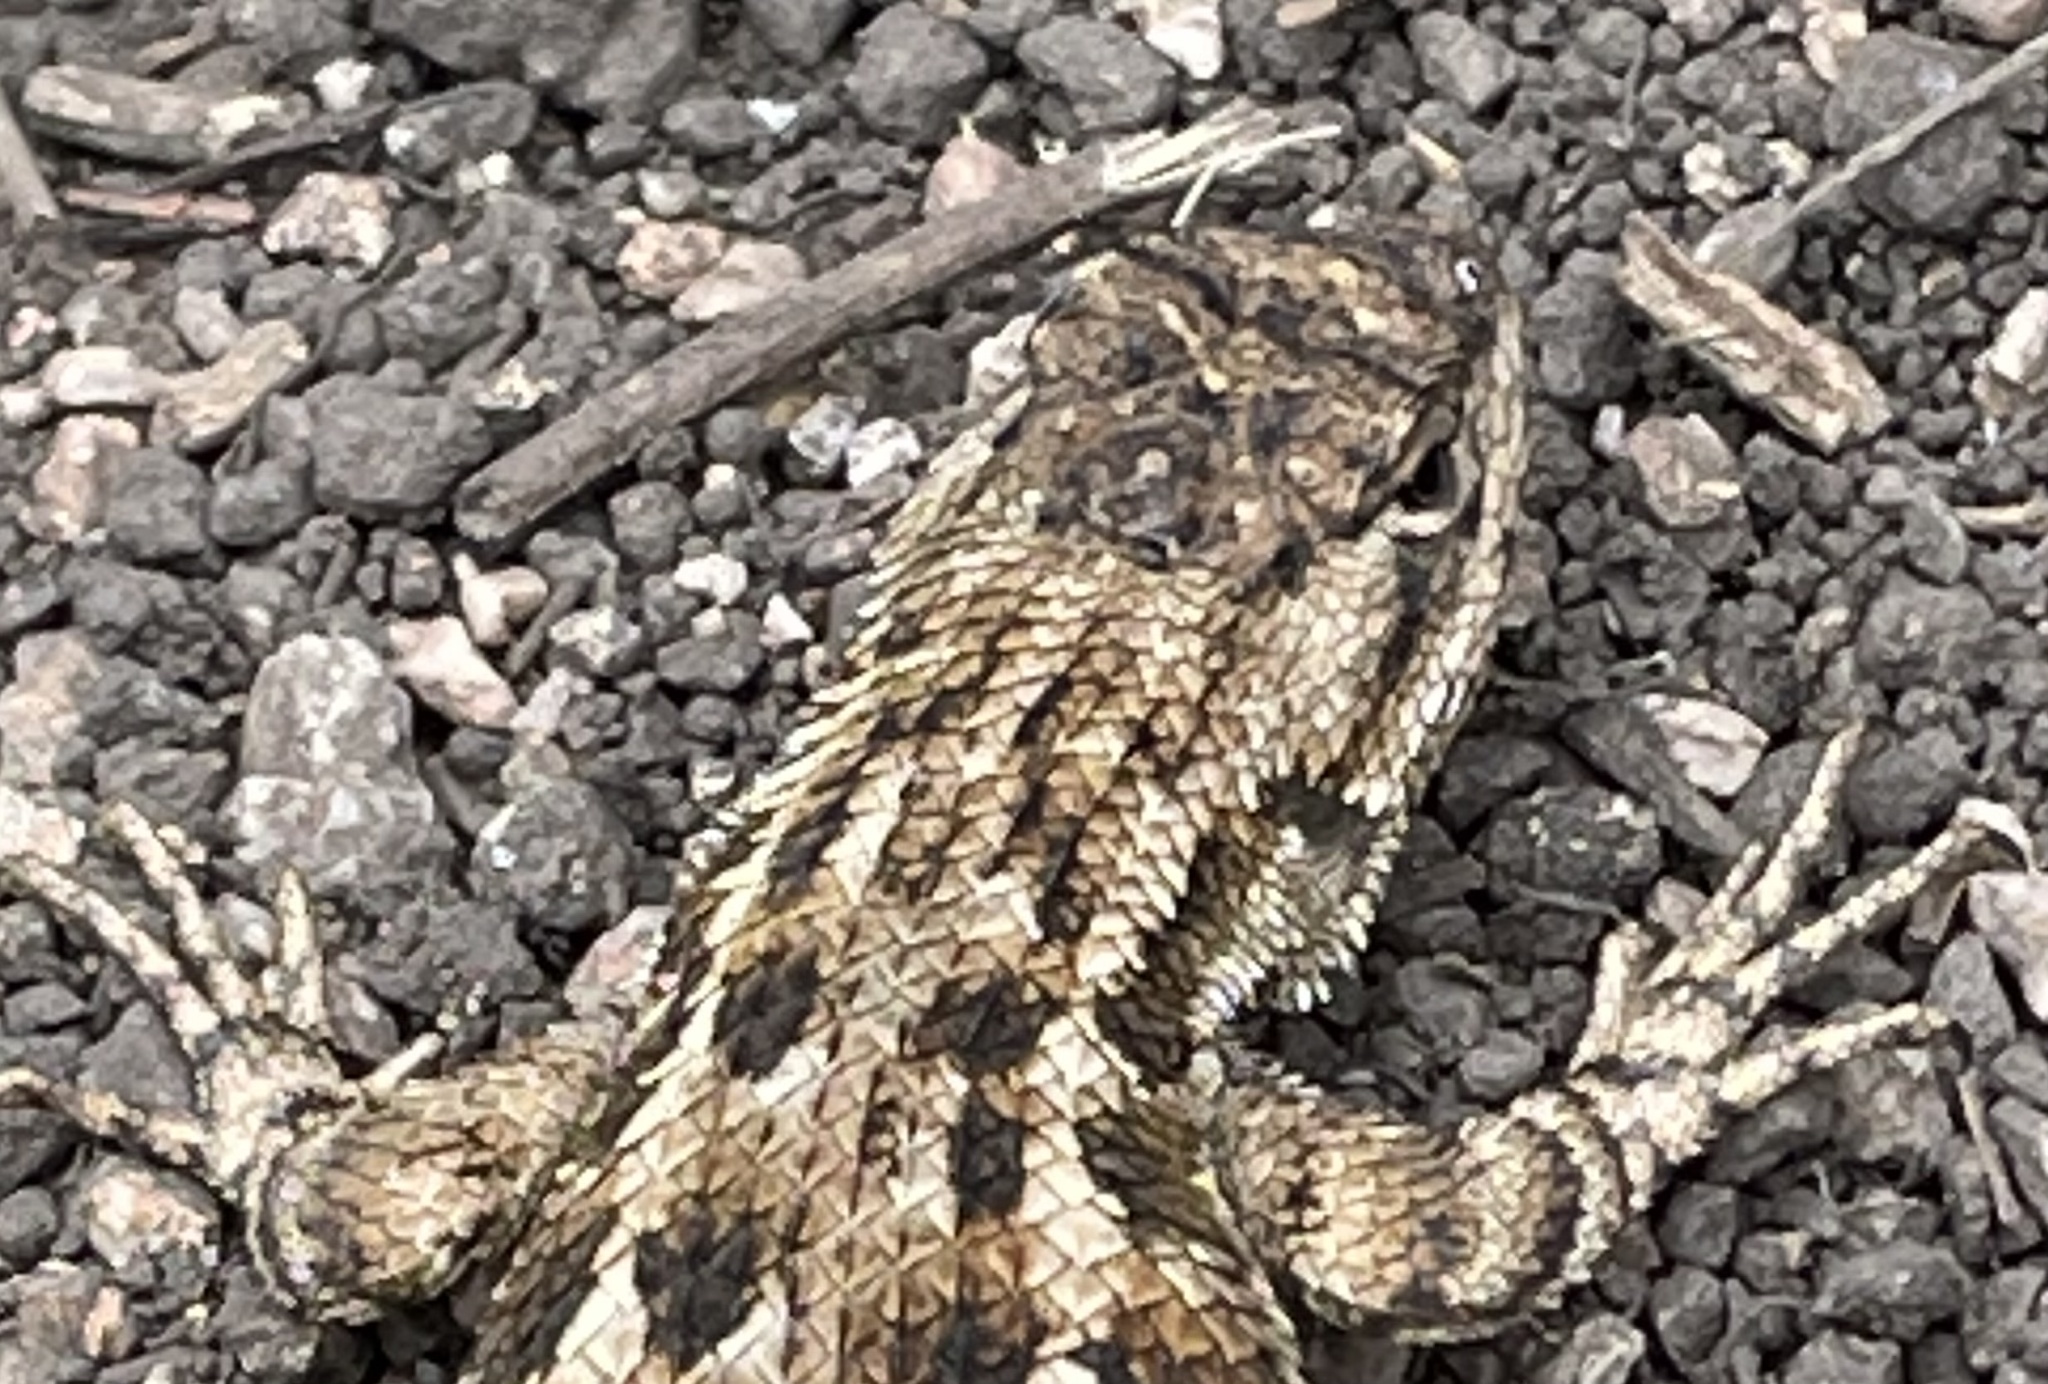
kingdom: Animalia
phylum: Chordata
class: Squamata
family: Phrynosomatidae
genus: Sceloporus
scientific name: Sceloporus occidentalis
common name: Western fence lizard
